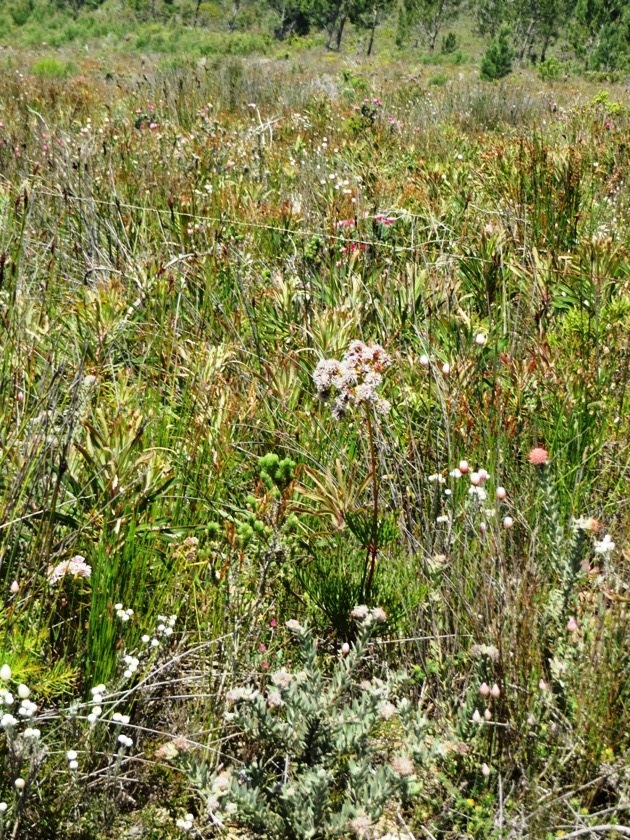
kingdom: Plantae
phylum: Tracheophyta
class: Magnoliopsida
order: Proteales
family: Proteaceae
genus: Serruria
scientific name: Serruria elongata
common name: Long-stalk spiderhead
